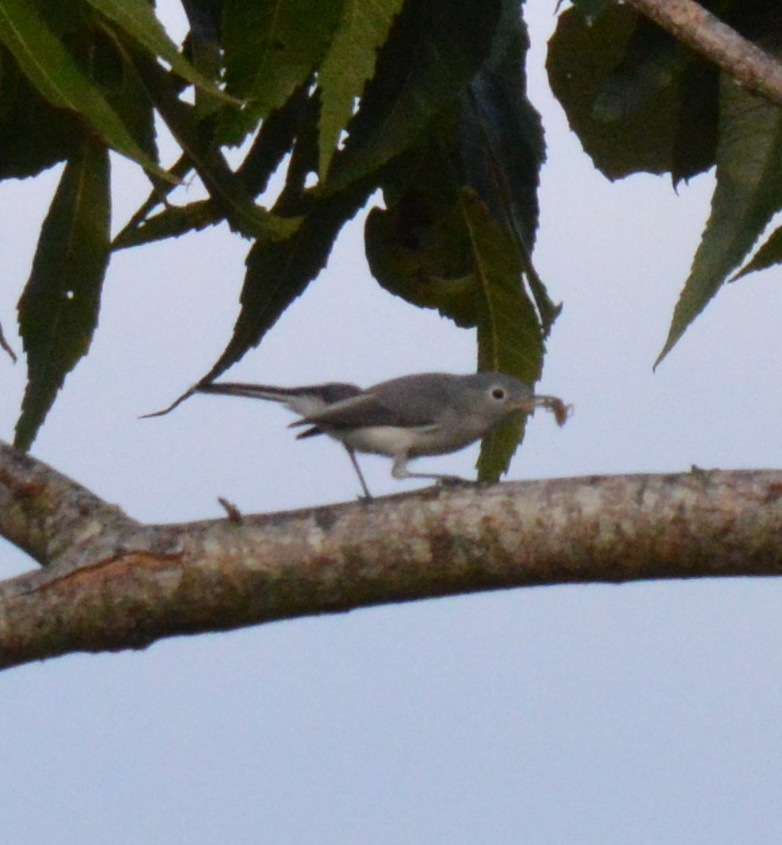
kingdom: Animalia
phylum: Chordata
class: Aves
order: Passeriformes
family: Polioptilidae
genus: Polioptila
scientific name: Polioptila caerulea
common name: Blue-gray gnatcatcher
